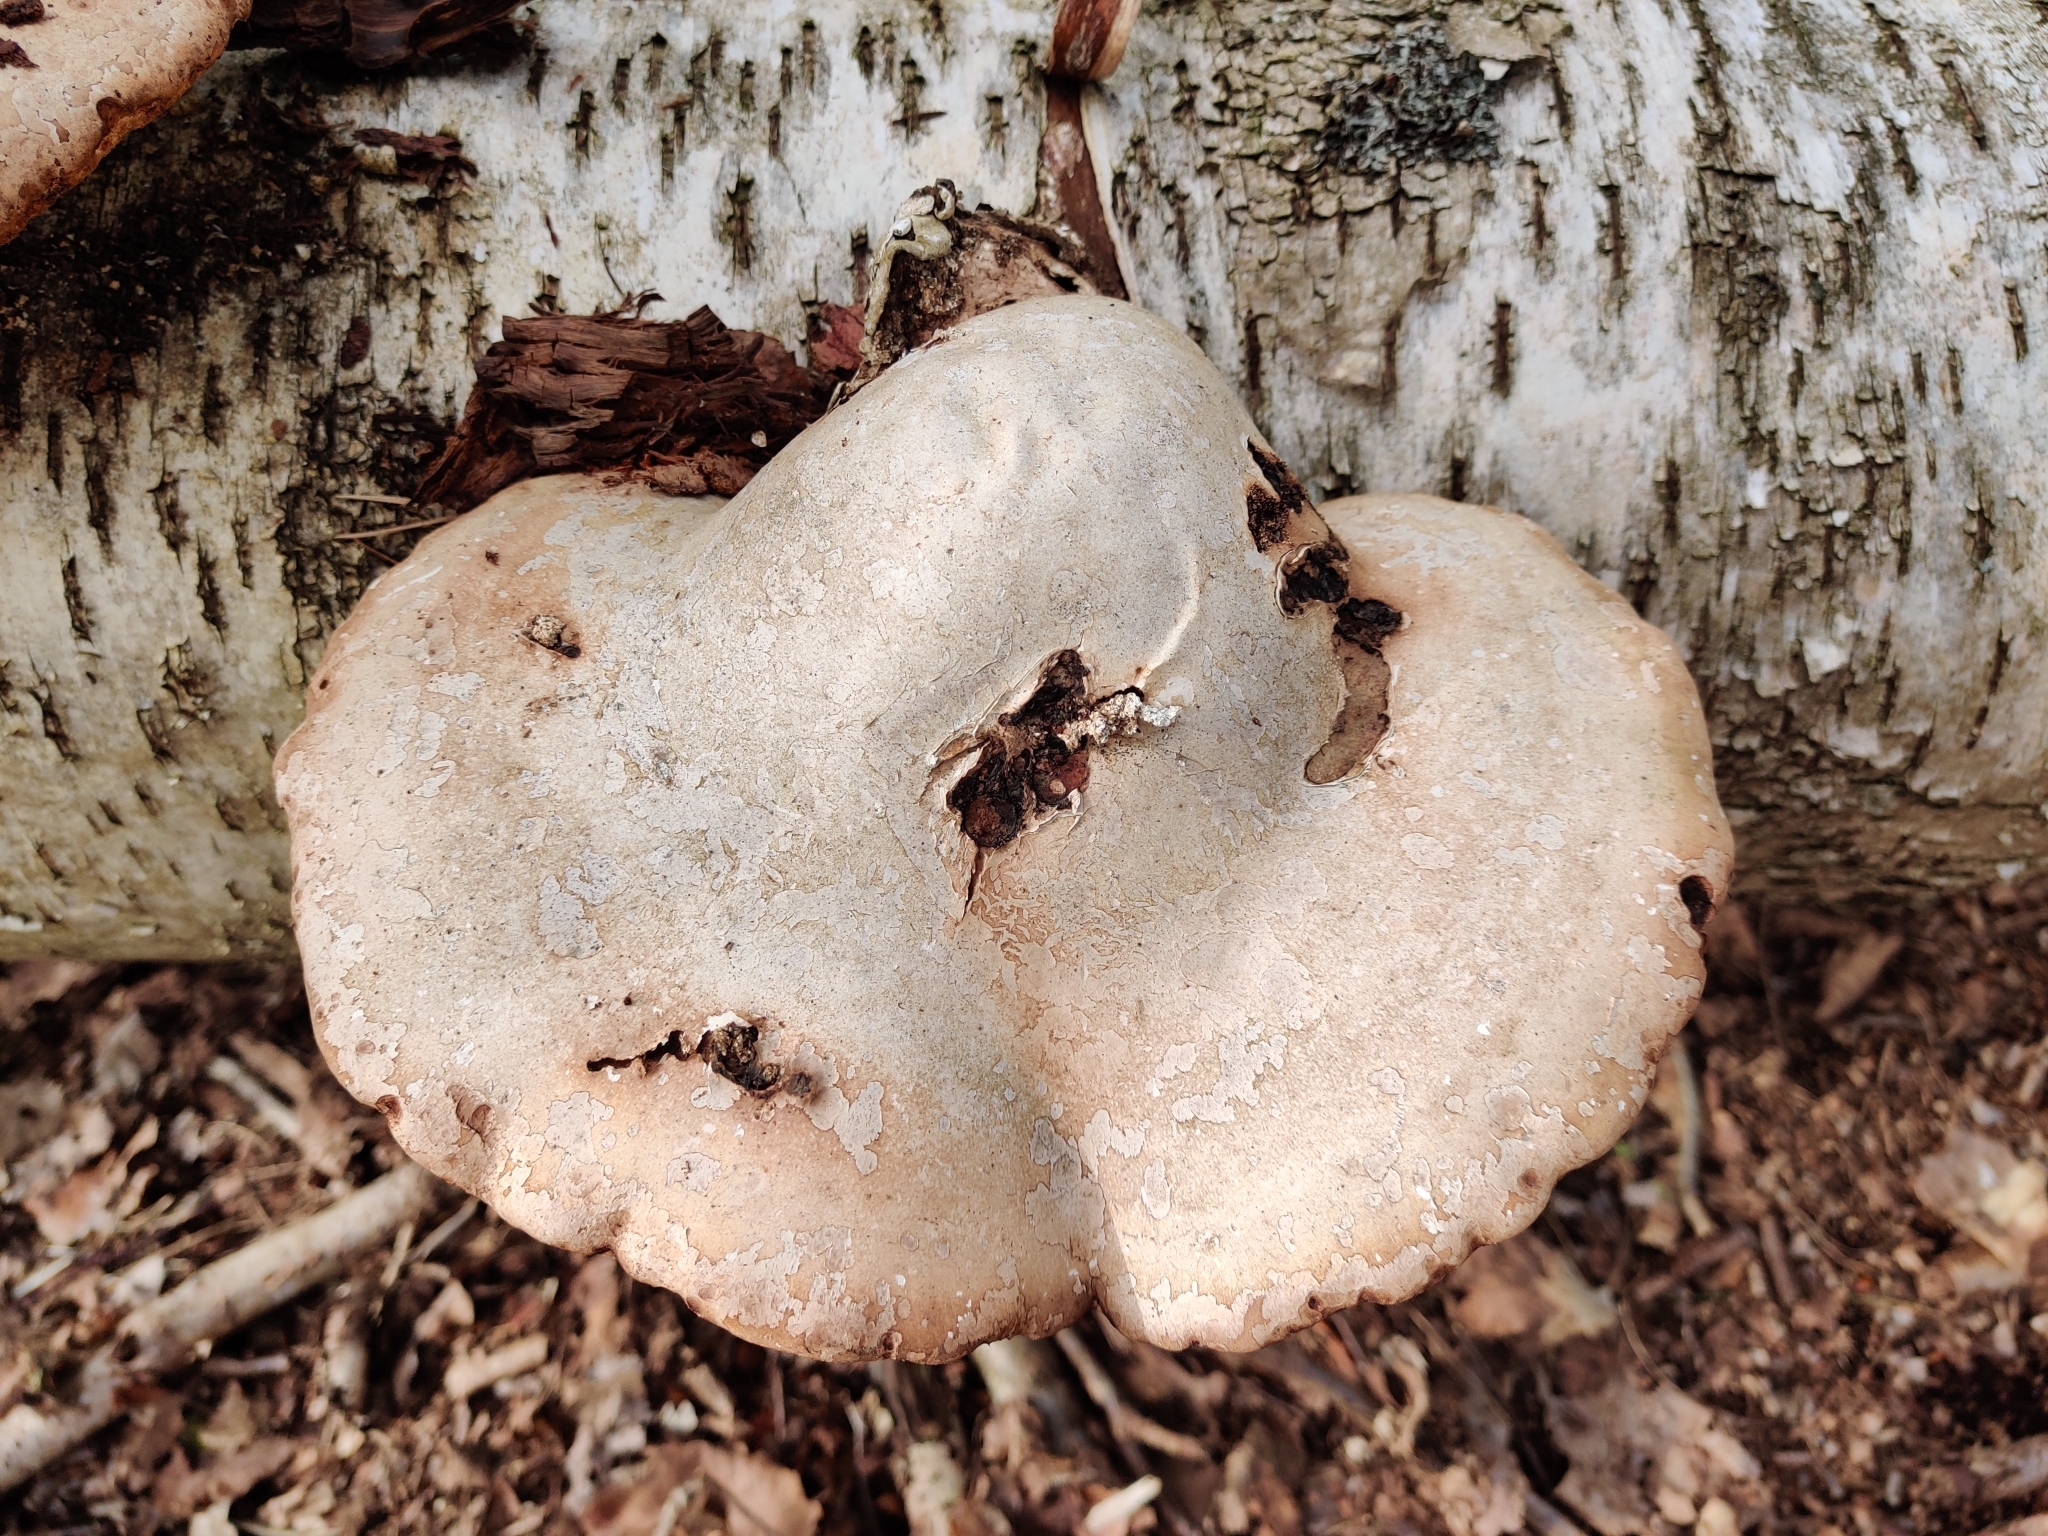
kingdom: Fungi
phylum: Basidiomycota
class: Agaricomycetes
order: Polyporales
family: Fomitopsidaceae
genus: Fomitopsis
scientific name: Fomitopsis betulina
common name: Birch polypore
